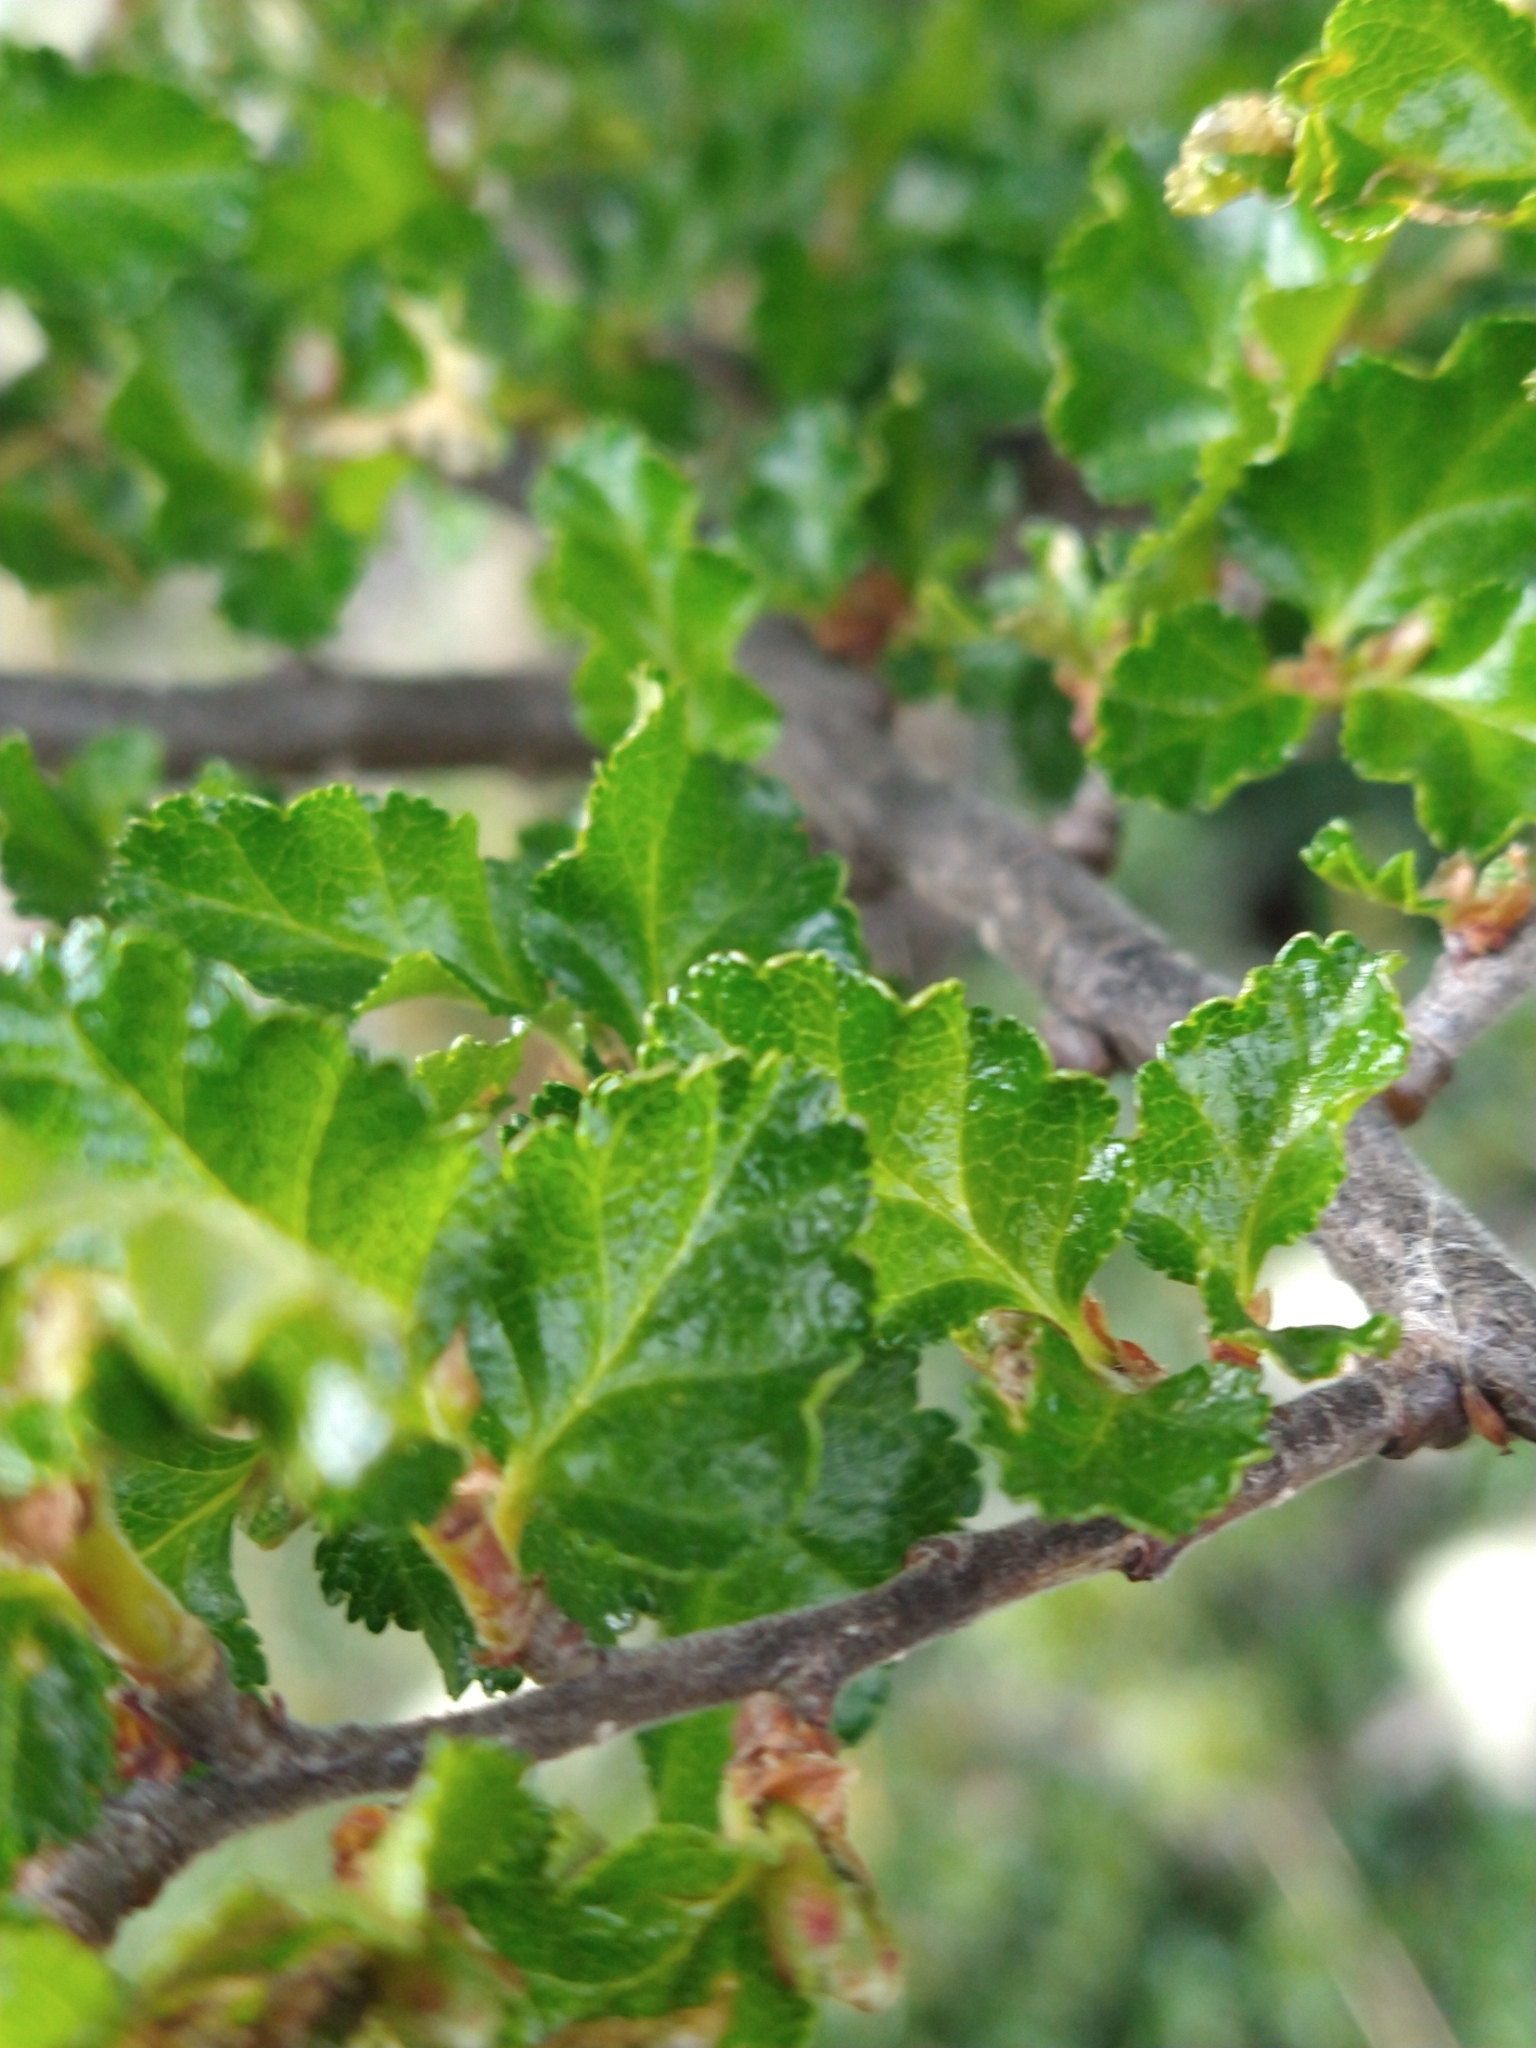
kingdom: Plantae
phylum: Tracheophyta
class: Magnoliopsida
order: Fagales
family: Nothofagaceae
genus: Nothofagus
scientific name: Nothofagus antarctica
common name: Antarctic beech
